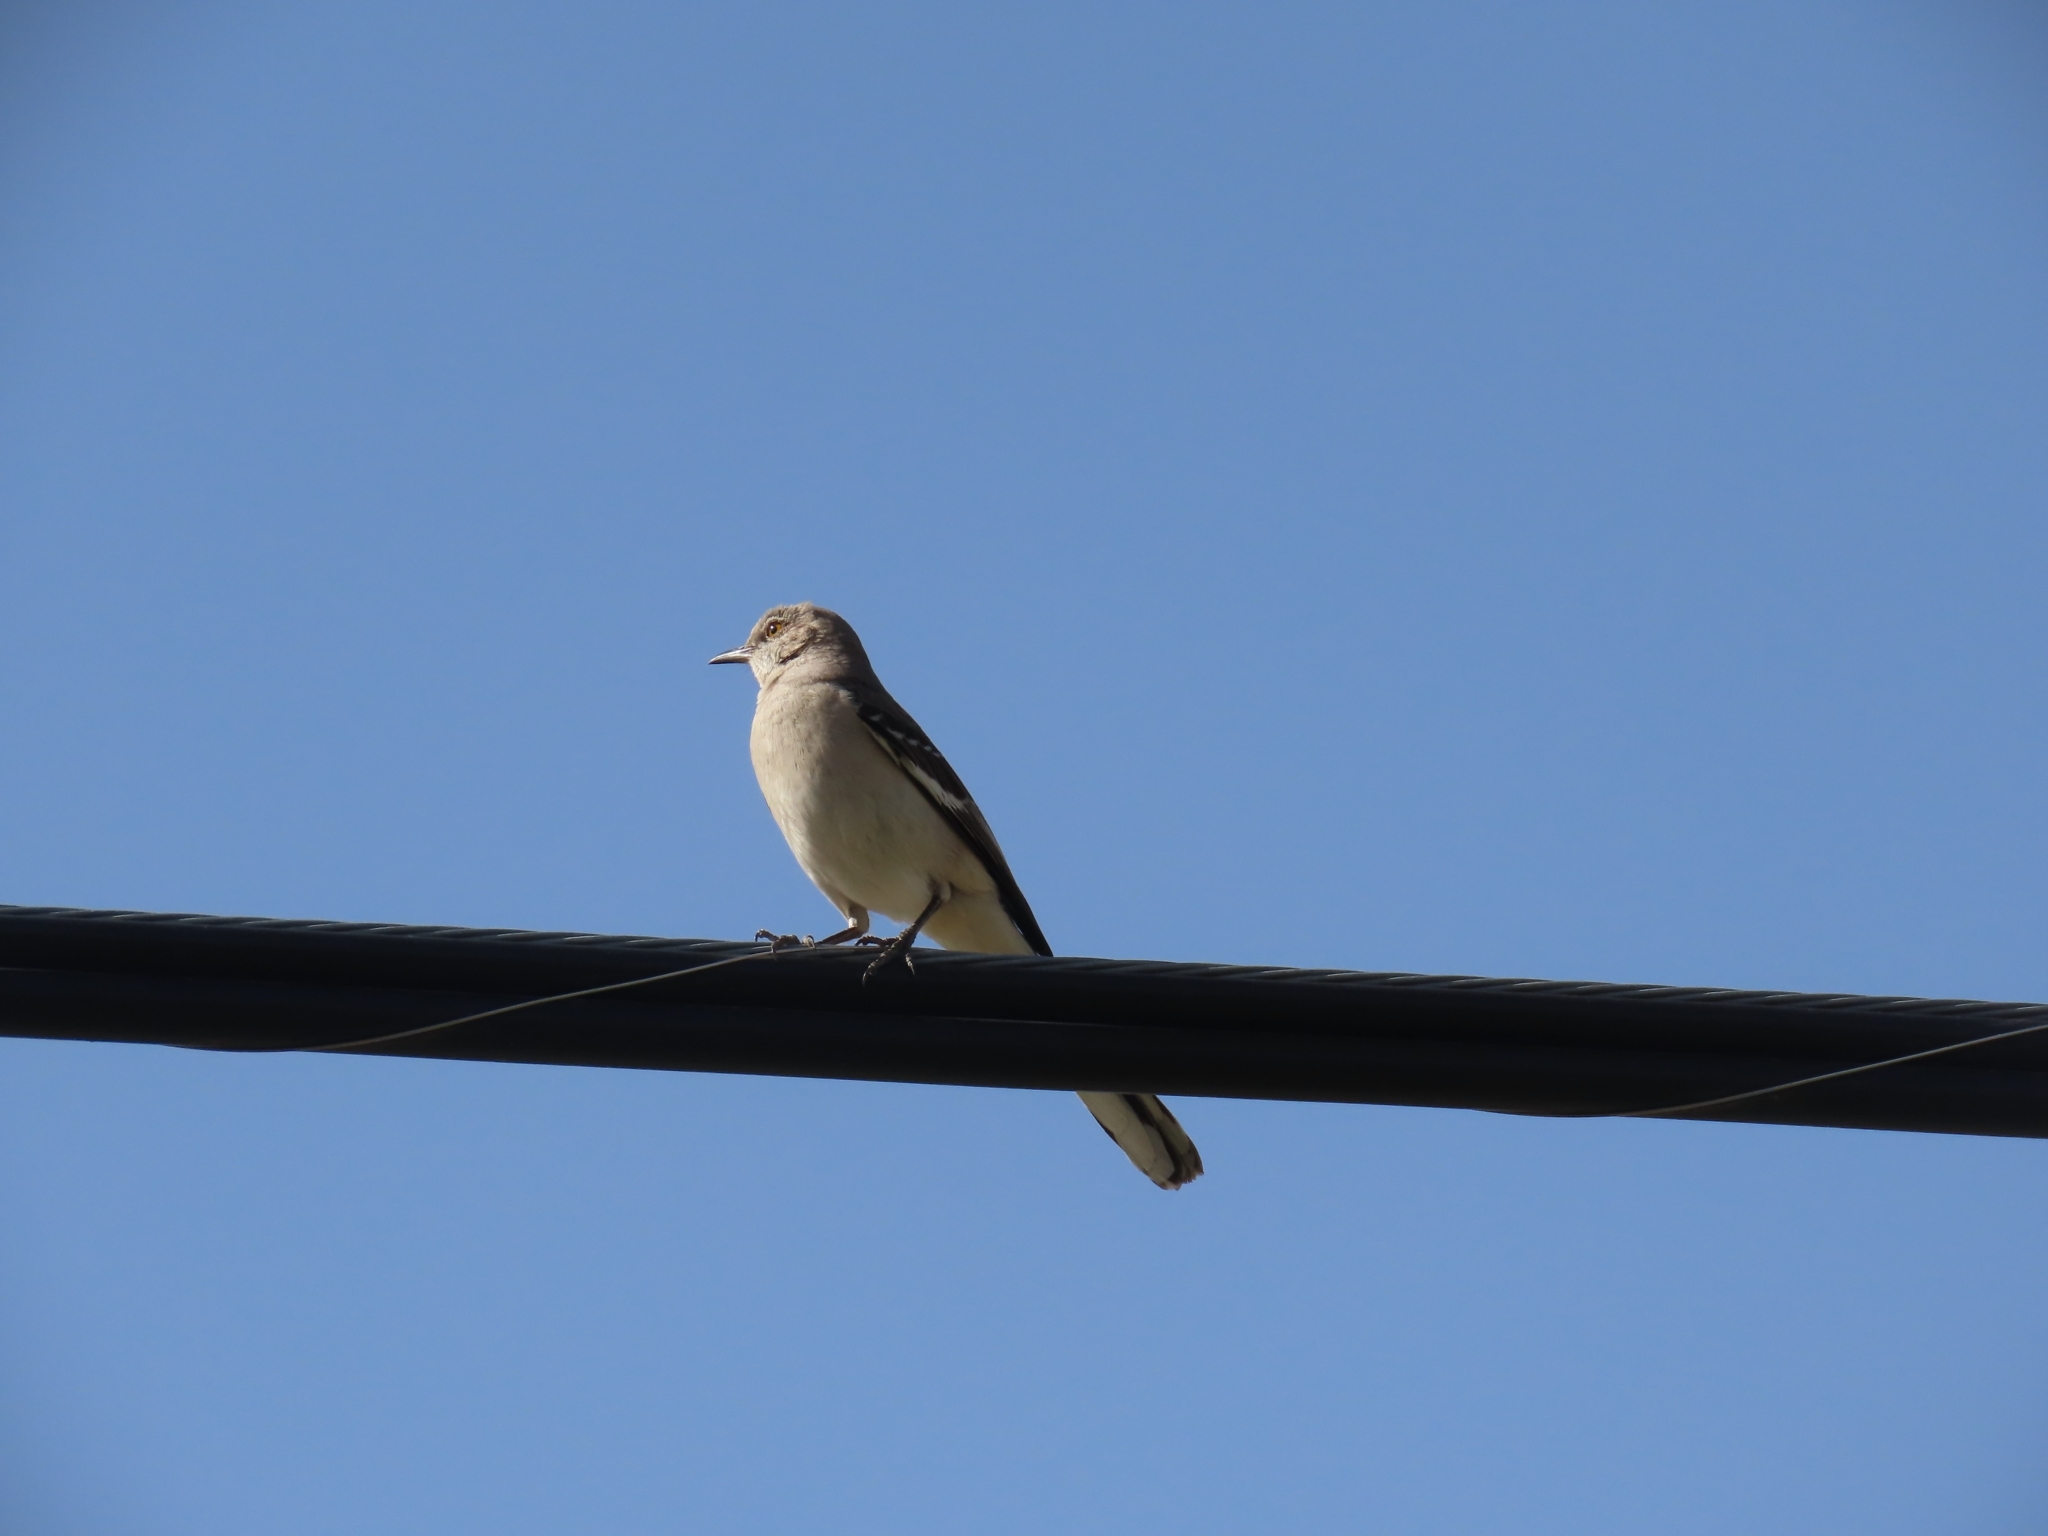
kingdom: Animalia
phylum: Chordata
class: Aves
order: Passeriformes
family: Mimidae
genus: Mimus
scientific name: Mimus polyglottos
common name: Northern mockingbird
